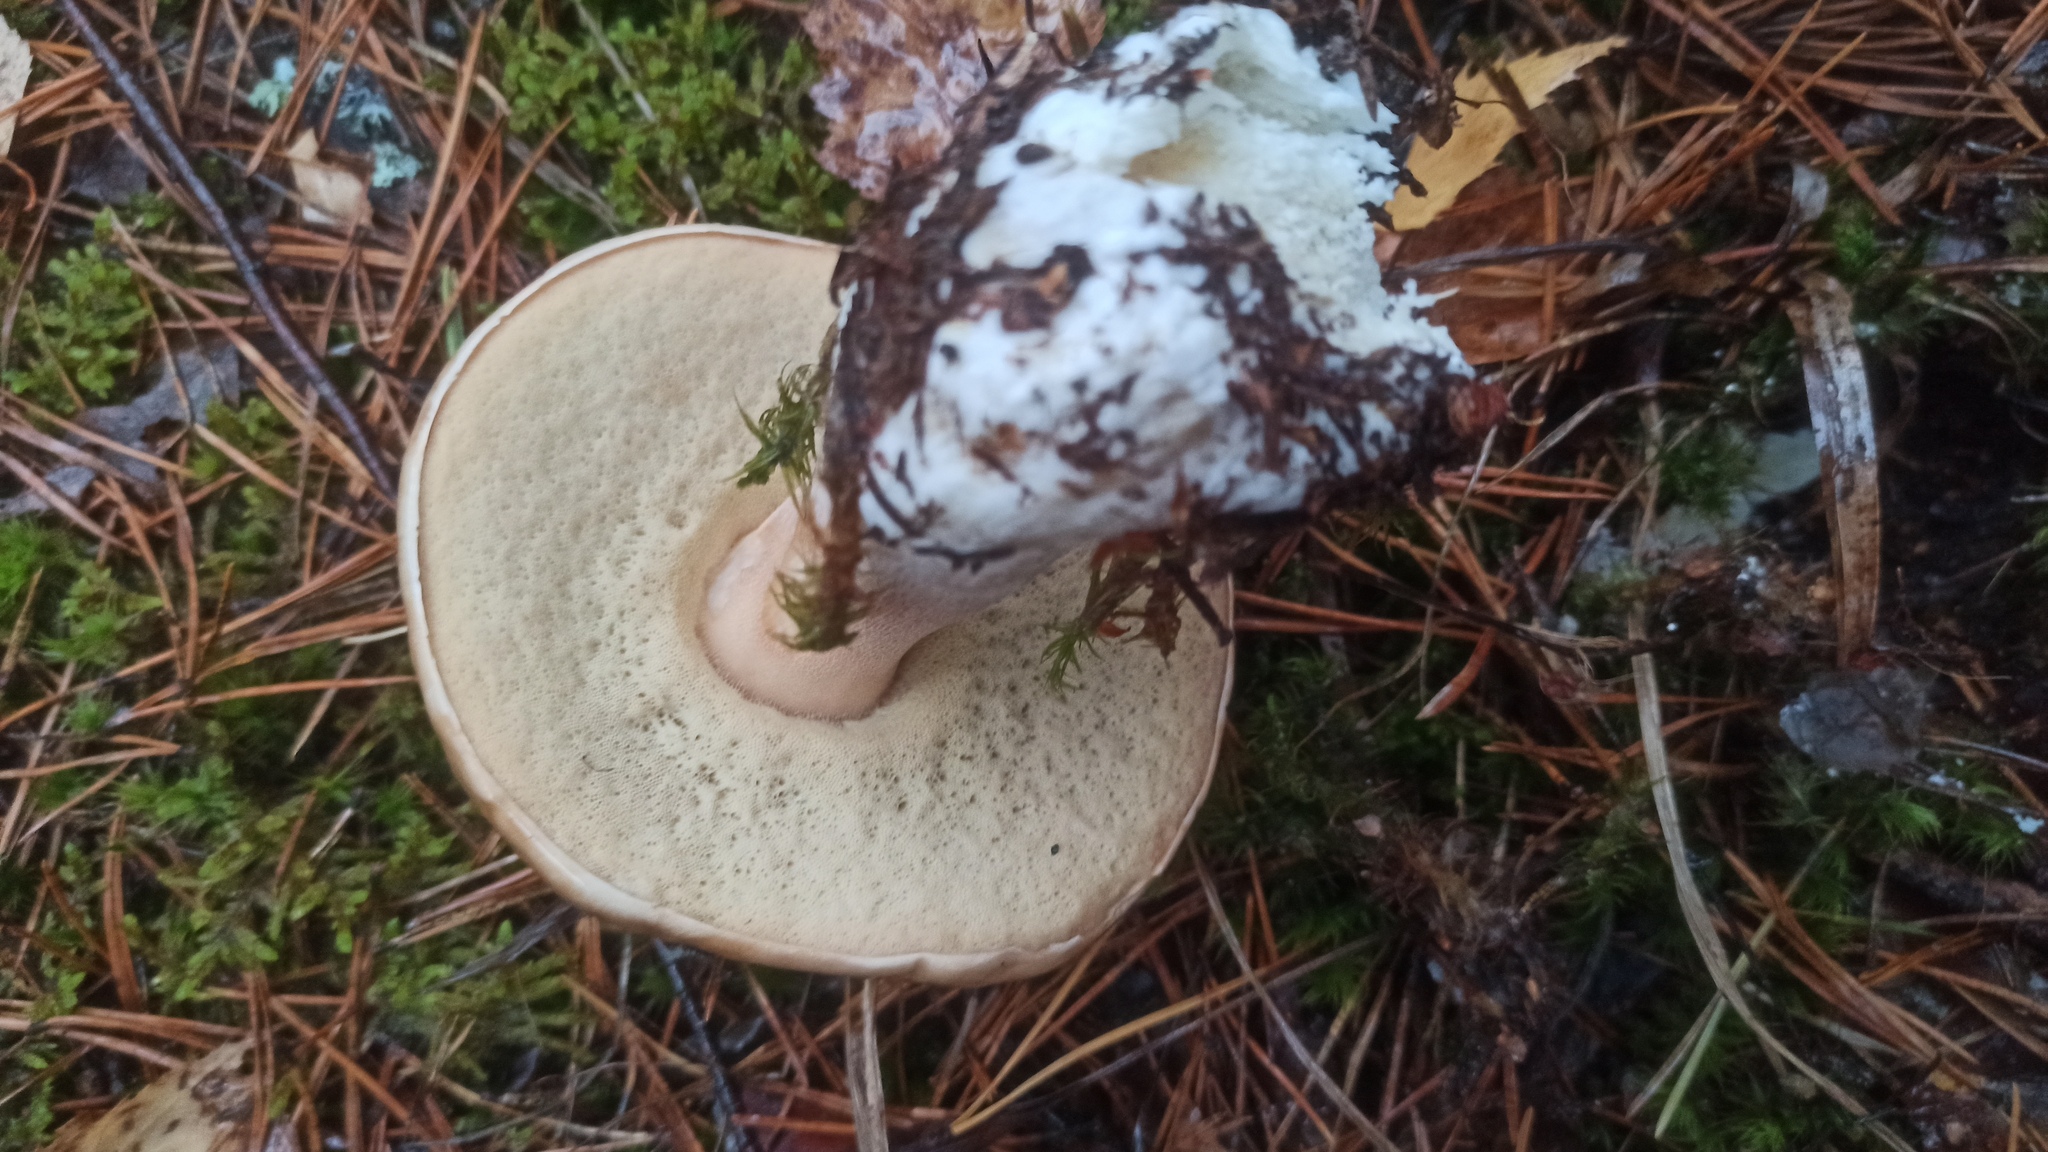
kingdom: Fungi
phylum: Basidiomycota
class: Agaricomycetes
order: Boletales
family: Boletaceae
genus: Boletus
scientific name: Boletus edulis
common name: Cep
